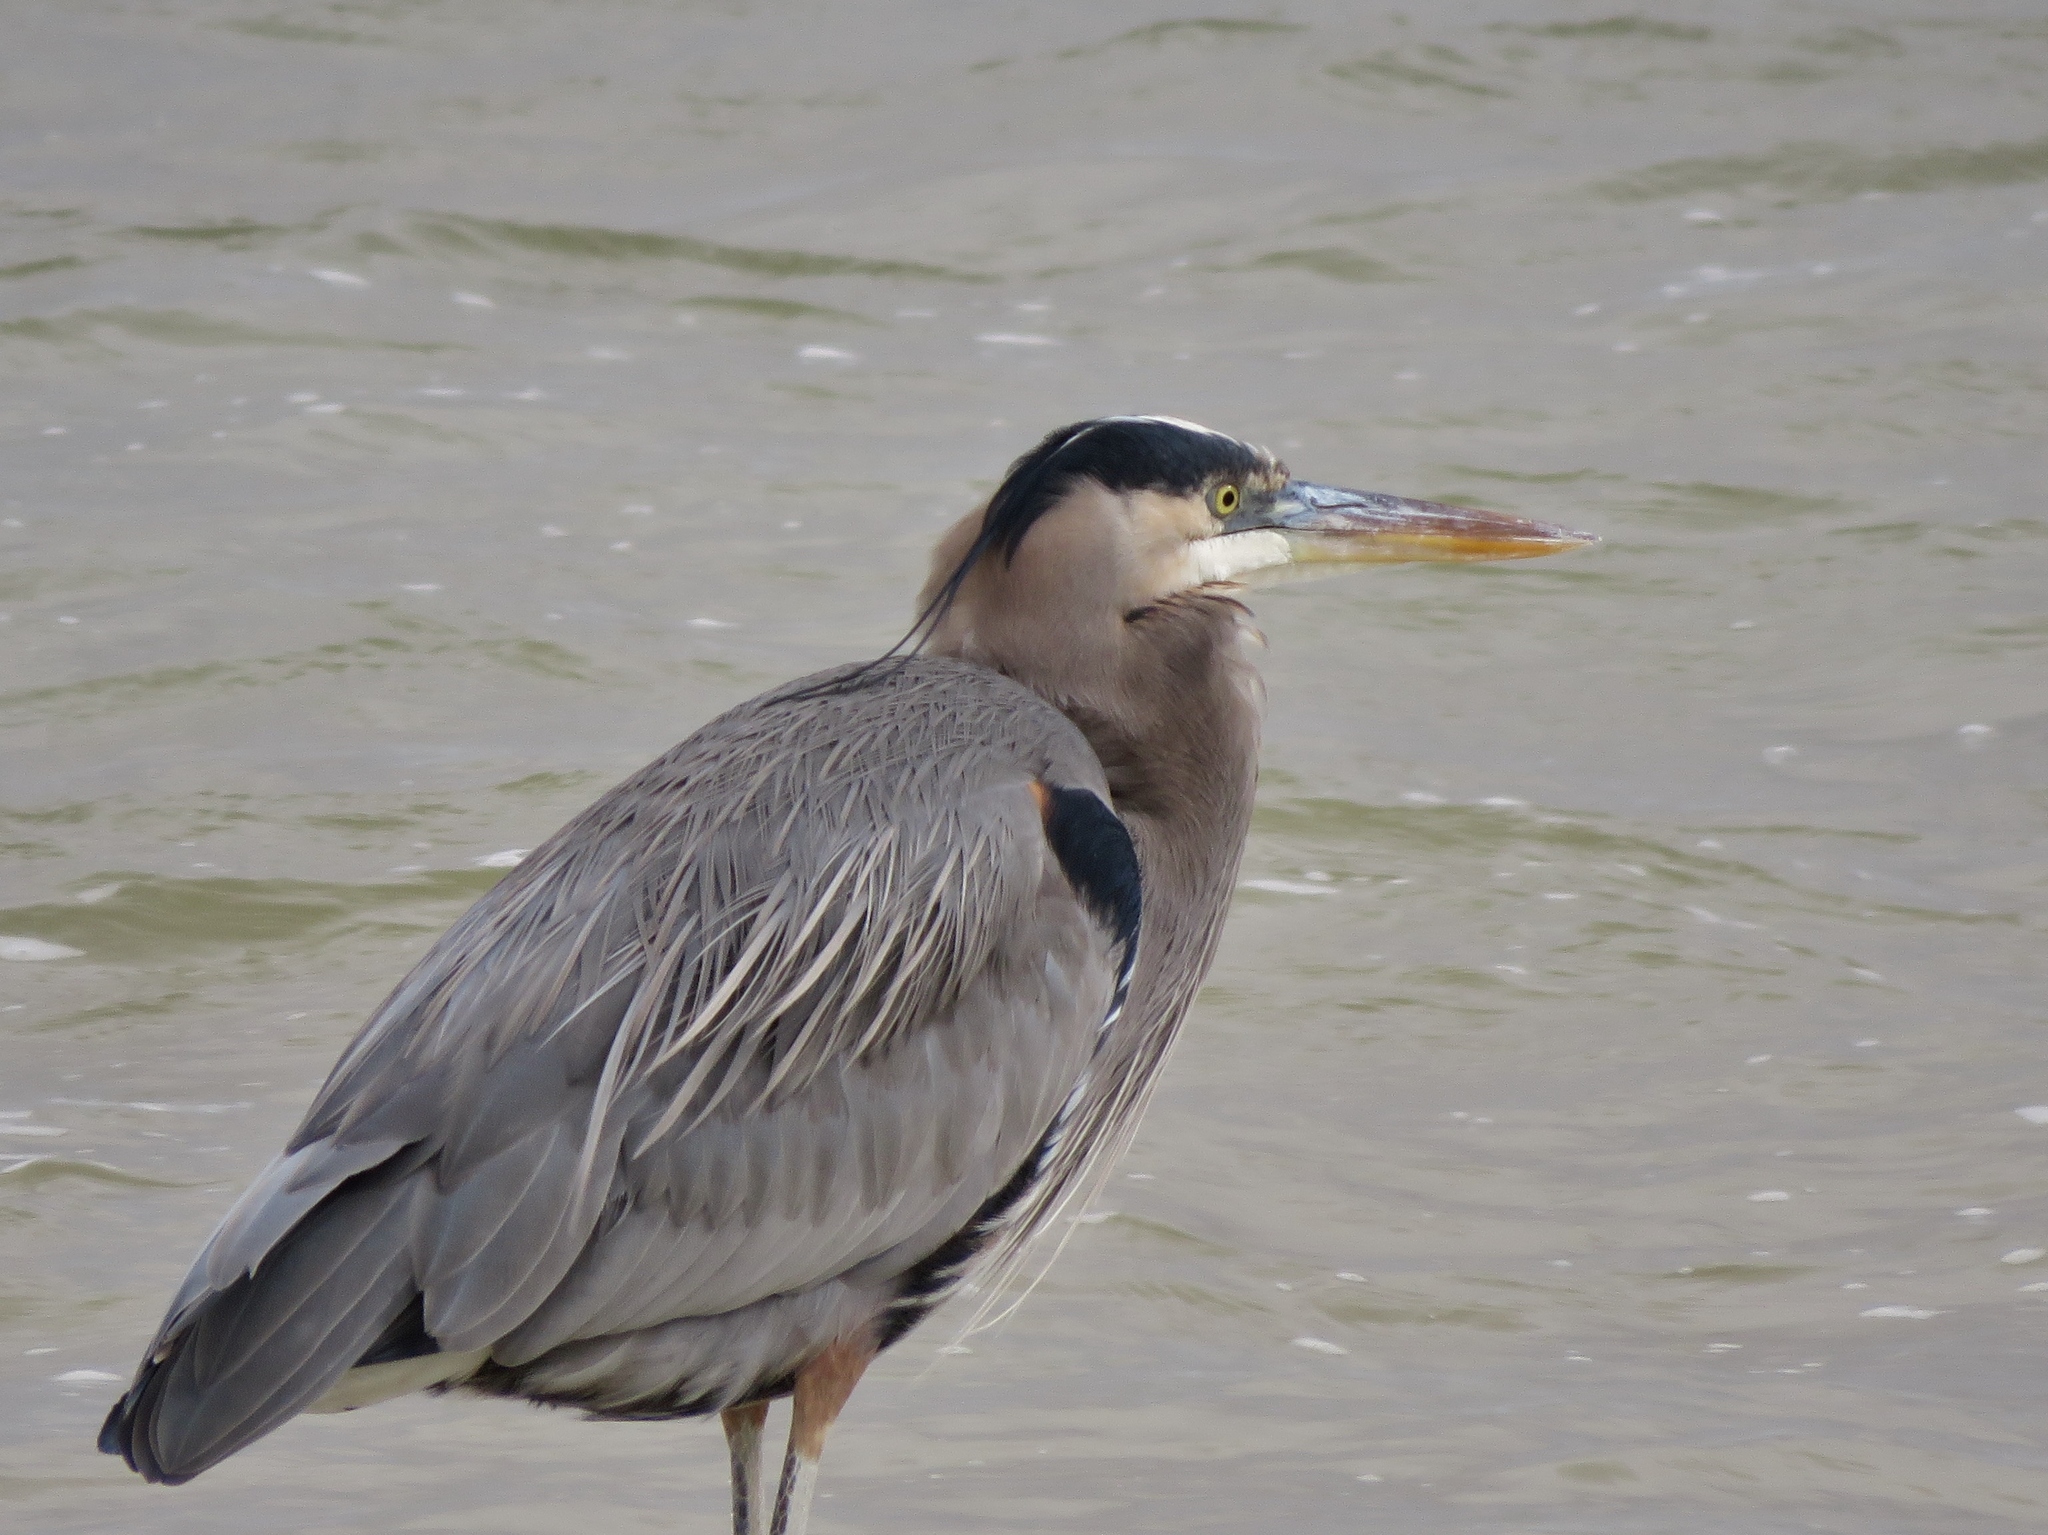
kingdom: Animalia
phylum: Chordata
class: Aves
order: Pelecaniformes
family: Ardeidae
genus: Ardea
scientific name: Ardea herodias
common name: Great blue heron
